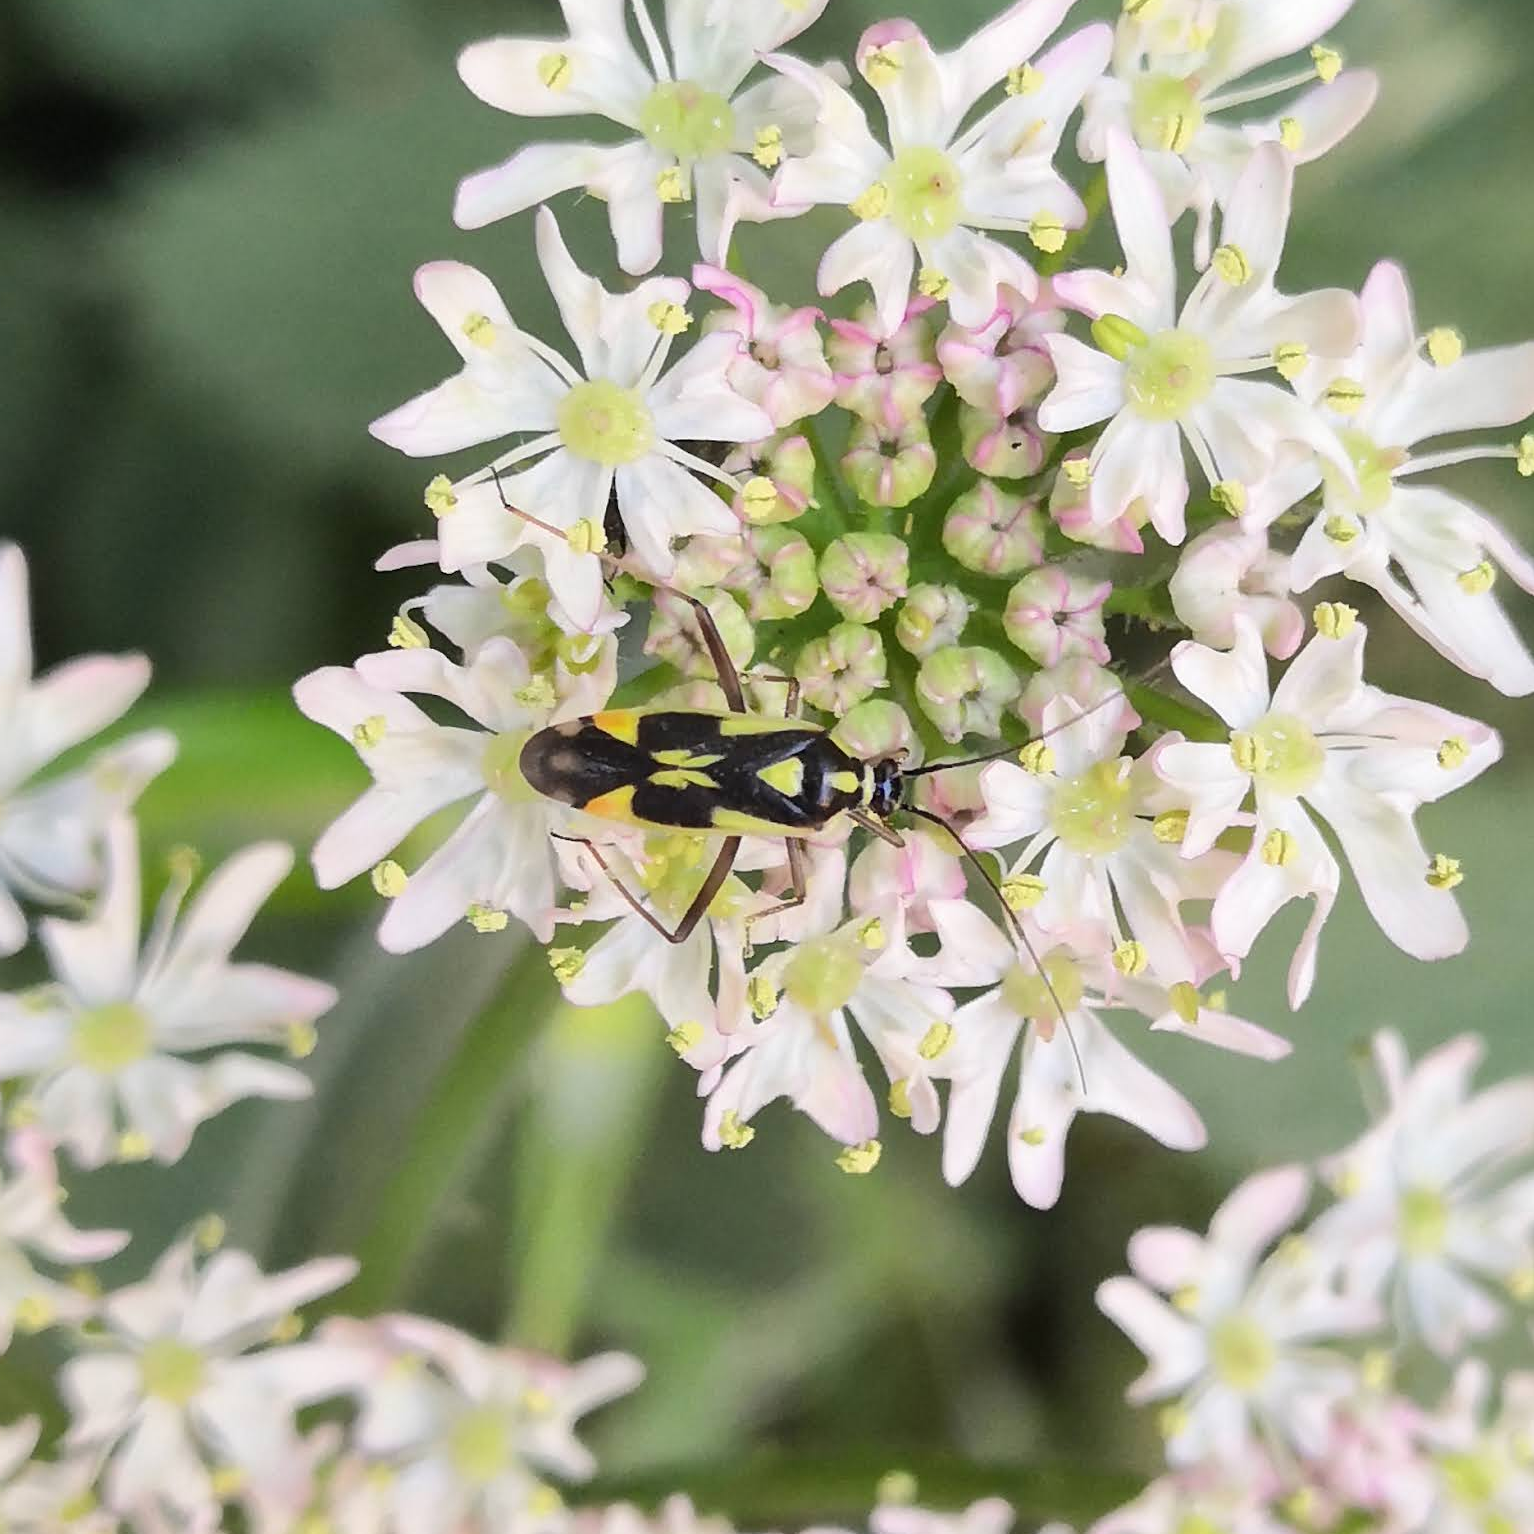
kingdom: Animalia
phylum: Arthropoda
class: Insecta
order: Hemiptera
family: Miridae
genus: Grypocoris
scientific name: Grypocoris stysi
